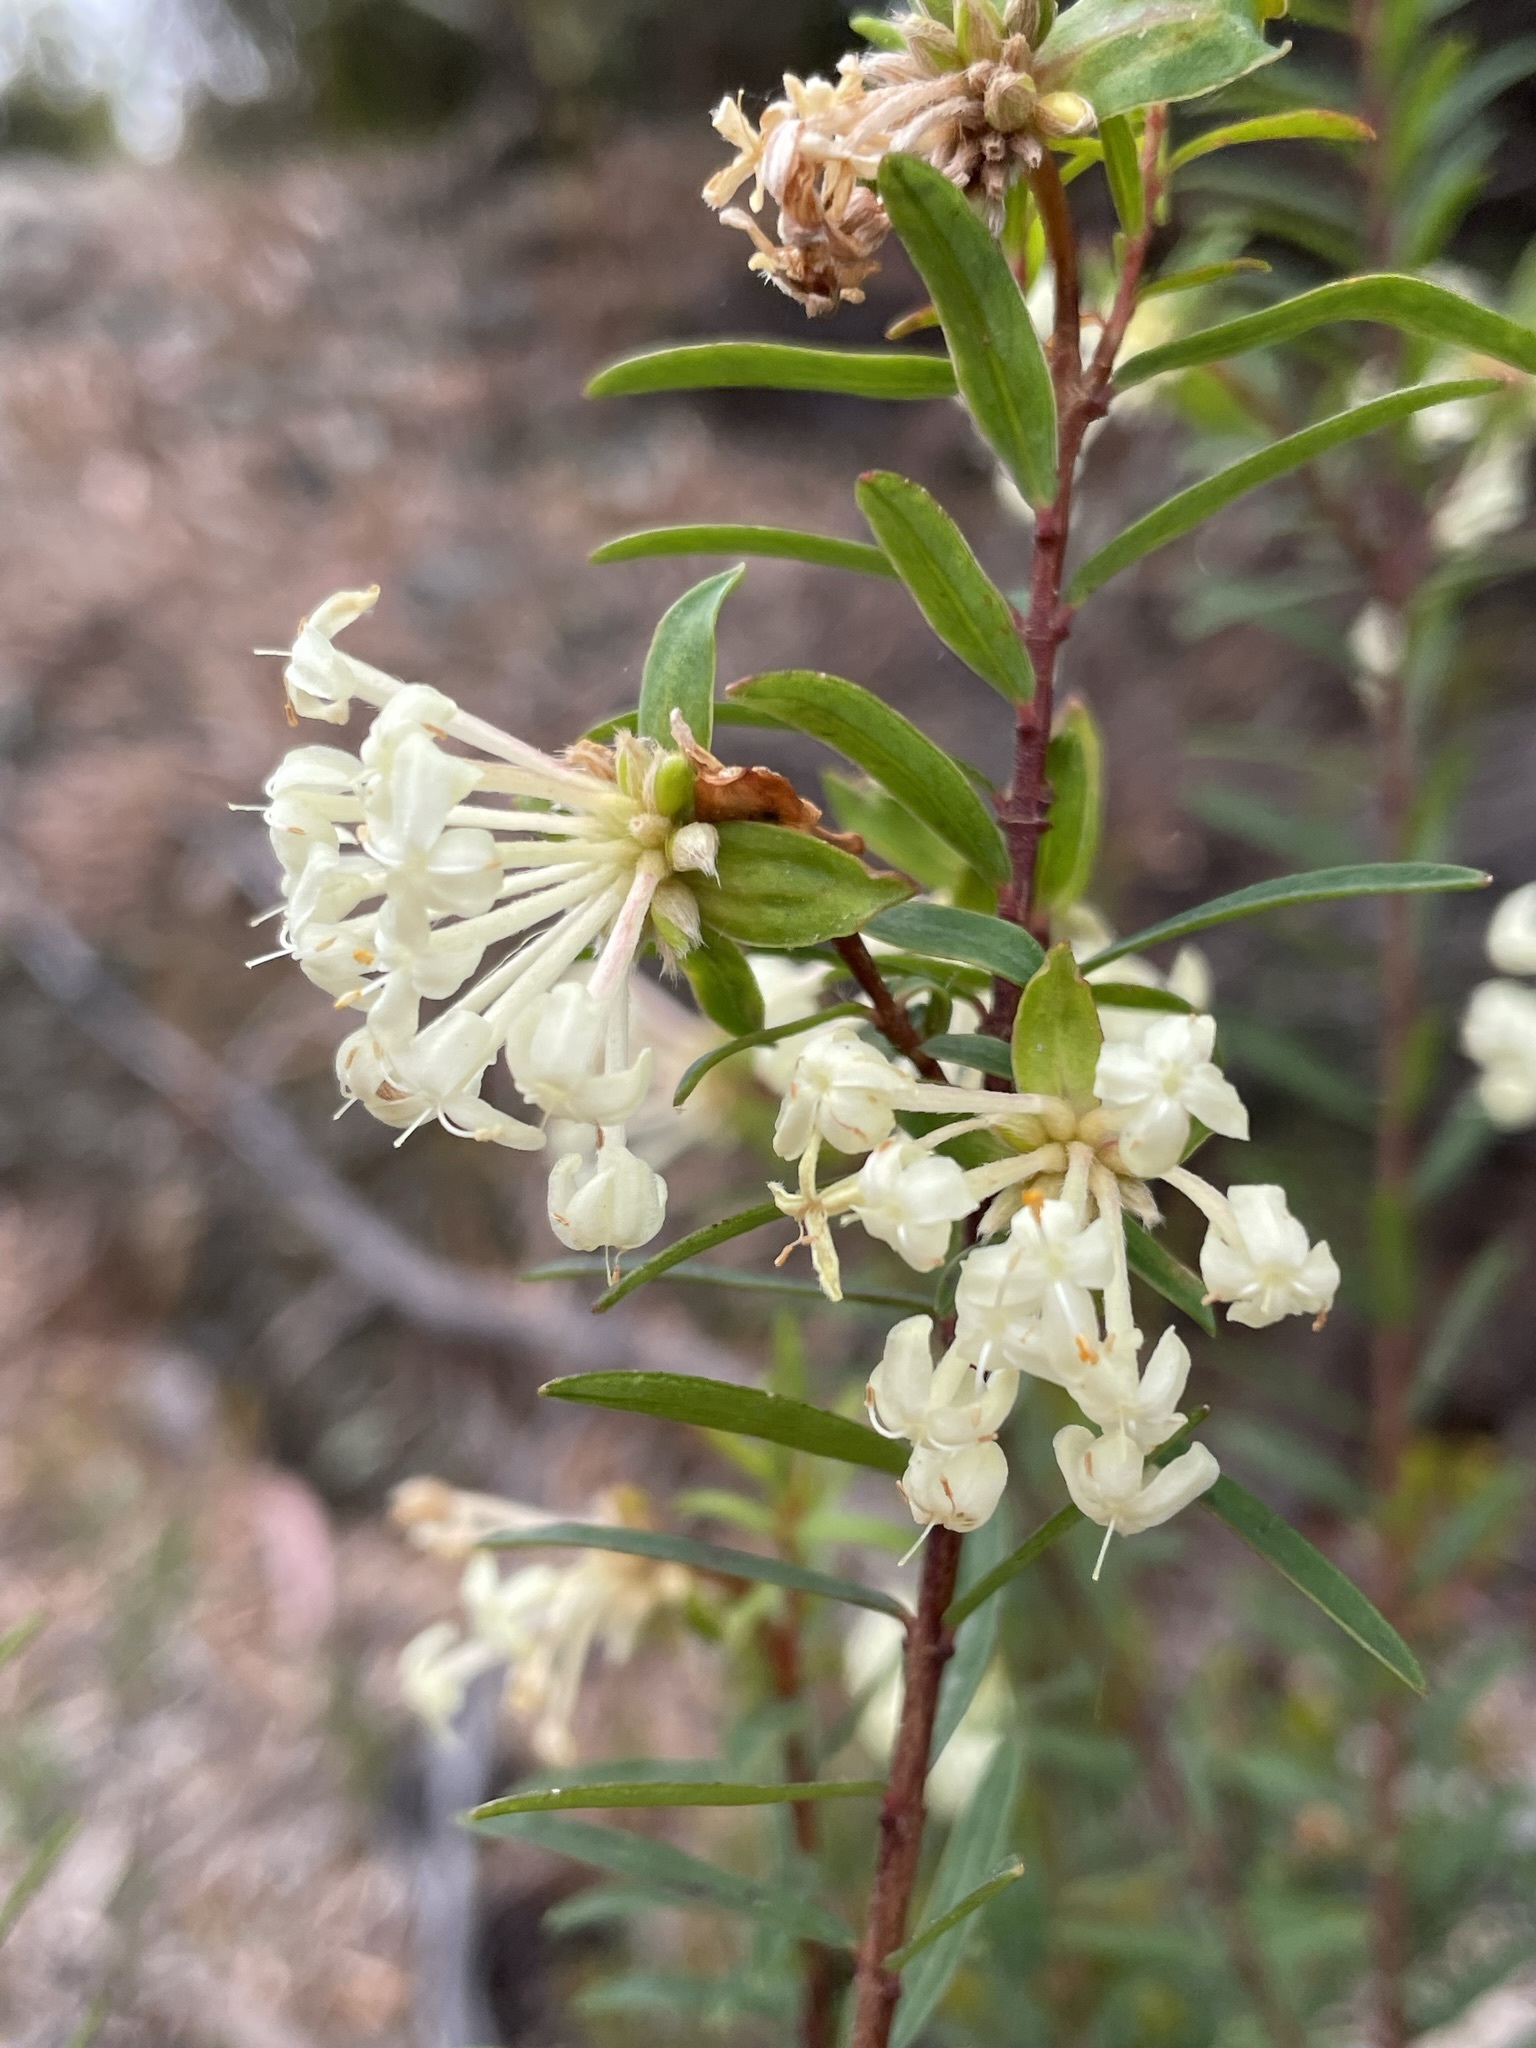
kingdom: Plantae
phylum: Tracheophyta
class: Magnoliopsida
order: Malvales
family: Thymelaeaceae
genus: Pimelea
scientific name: Pimelea linifolia
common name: Queen-of-the-bush
